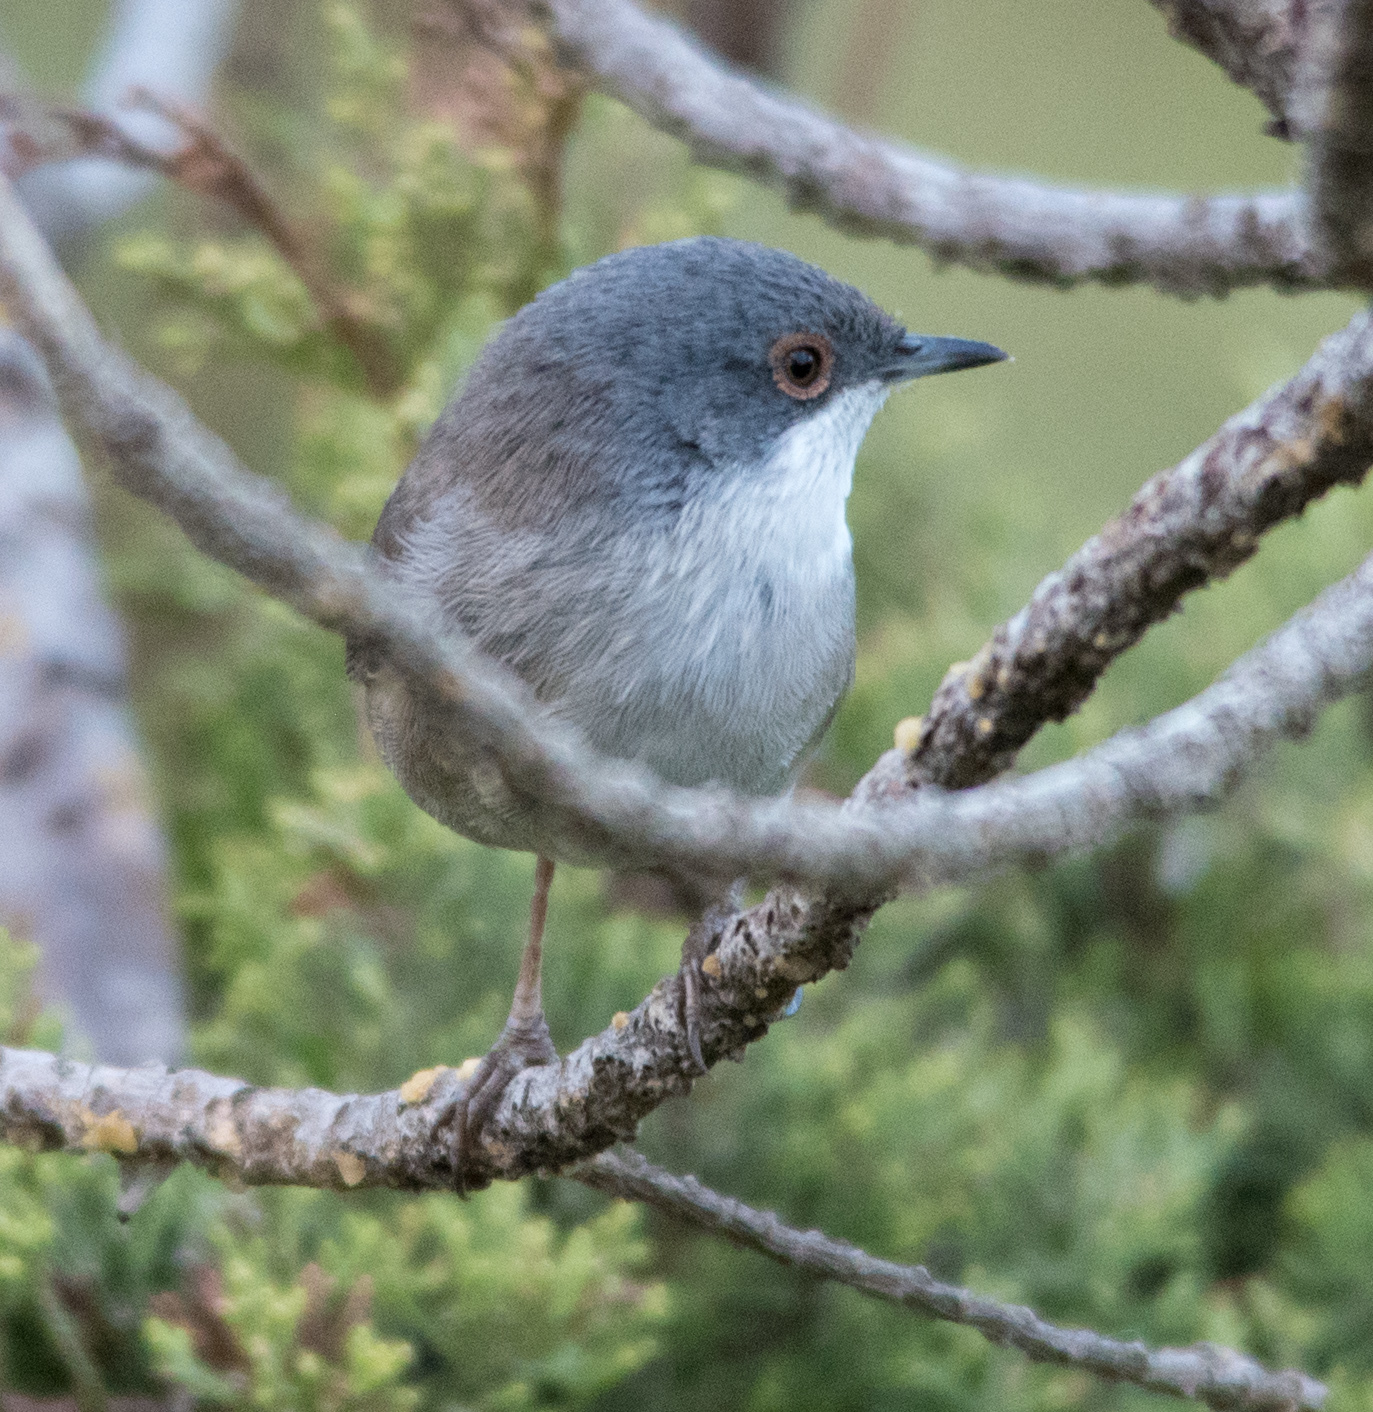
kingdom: Animalia
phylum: Chordata
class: Aves
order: Passeriformes
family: Sylviidae
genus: Curruca
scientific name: Curruca melanocephala
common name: Sardinian warbler
